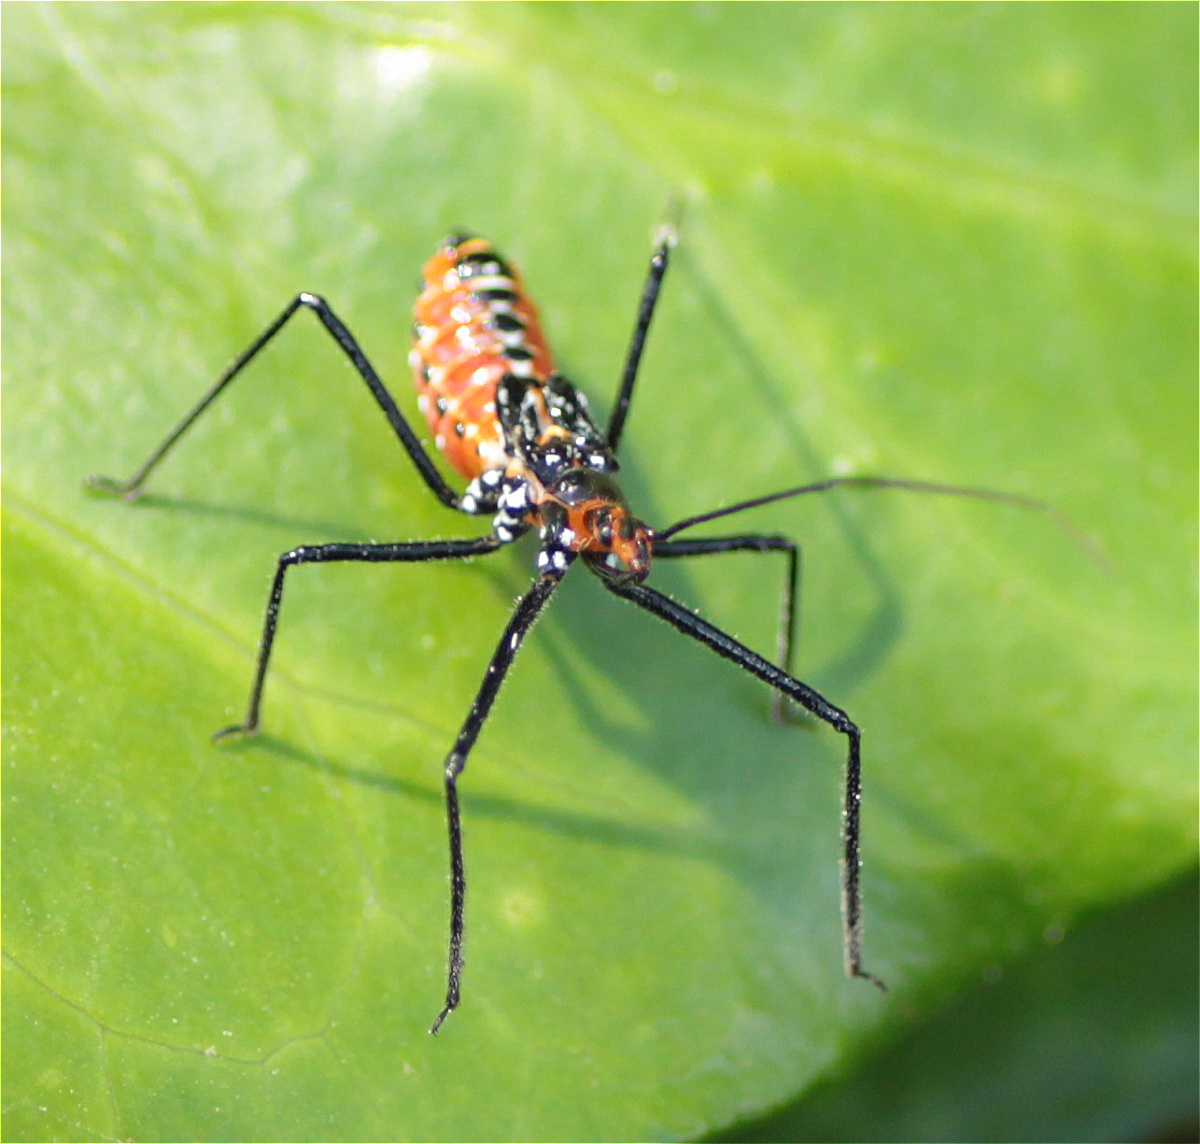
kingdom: Animalia
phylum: Arthropoda
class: Insecta
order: Hemiptera
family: Reduviidae
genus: Zelus
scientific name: Zelus longipes
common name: Milkweed assassin bug
